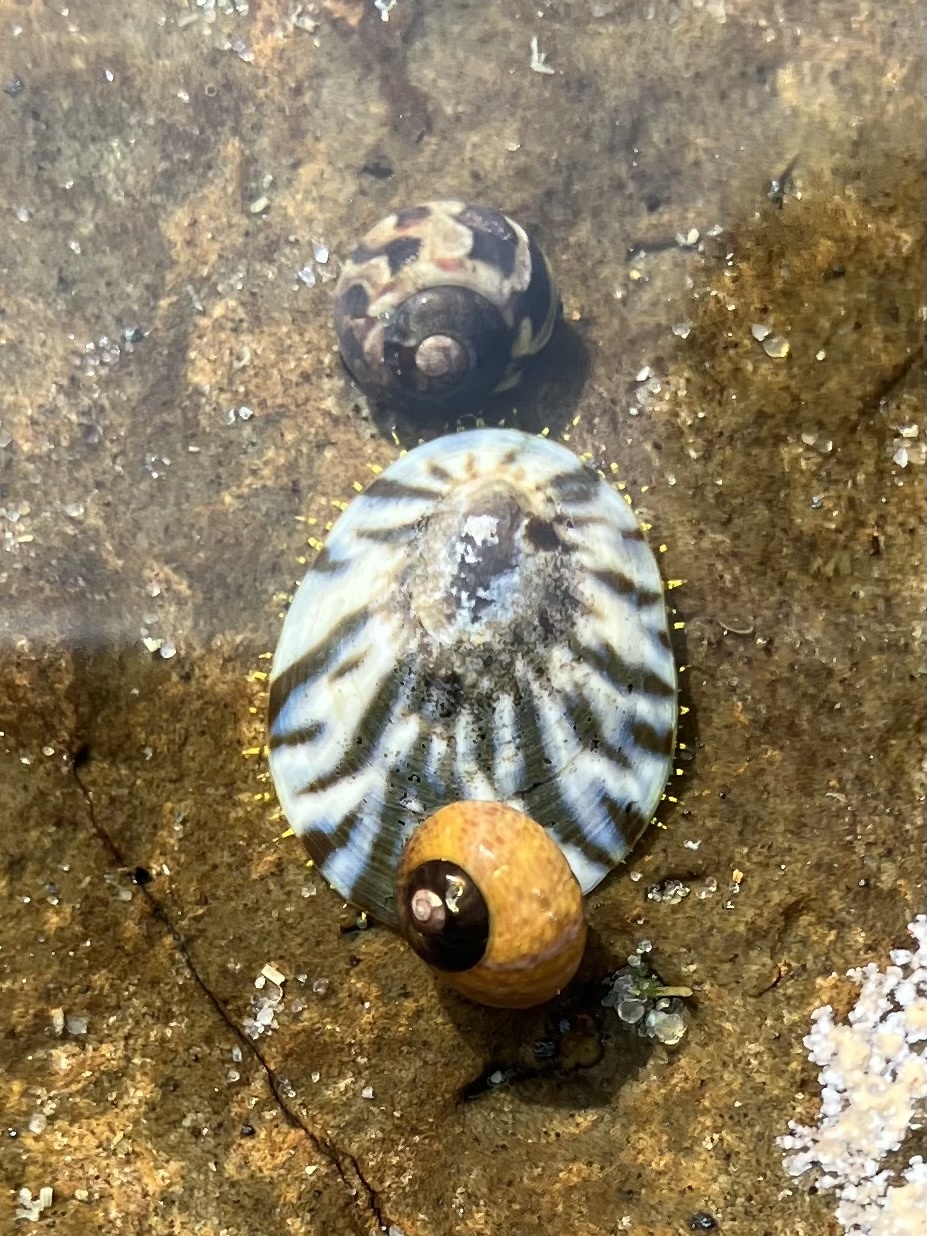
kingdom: Animalia
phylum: Mollusca
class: Gastropoda
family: Nacellidae
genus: Cellana
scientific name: Cellana radians
